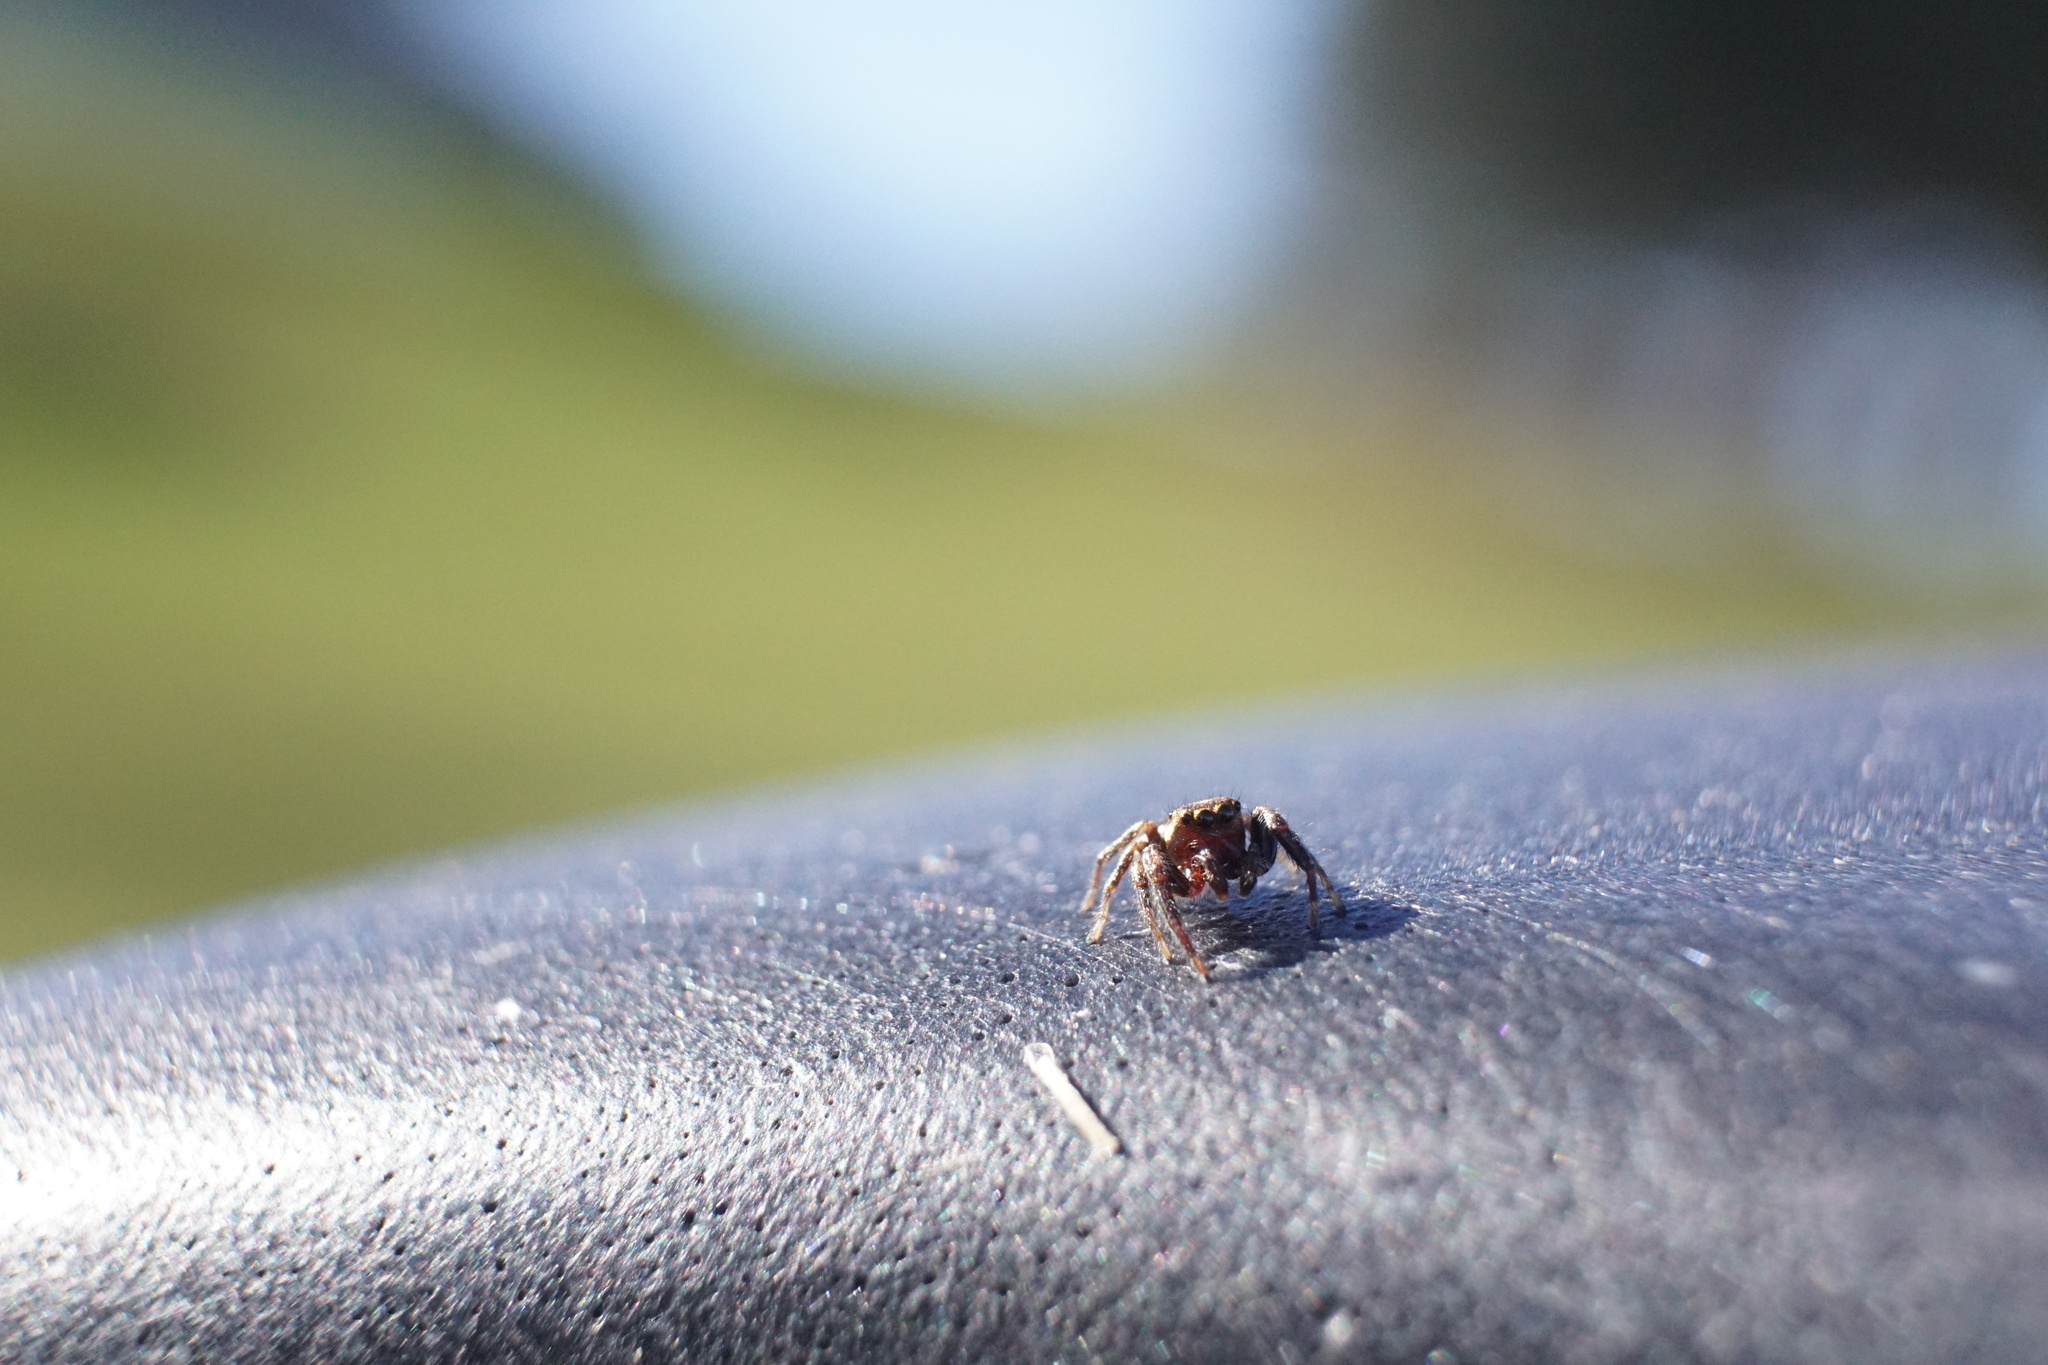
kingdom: Animalia
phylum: Arthropoda
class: Arachnida
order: Araneae
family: Salticidae
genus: Eris
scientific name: Eris militaris
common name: Bronze jumper
